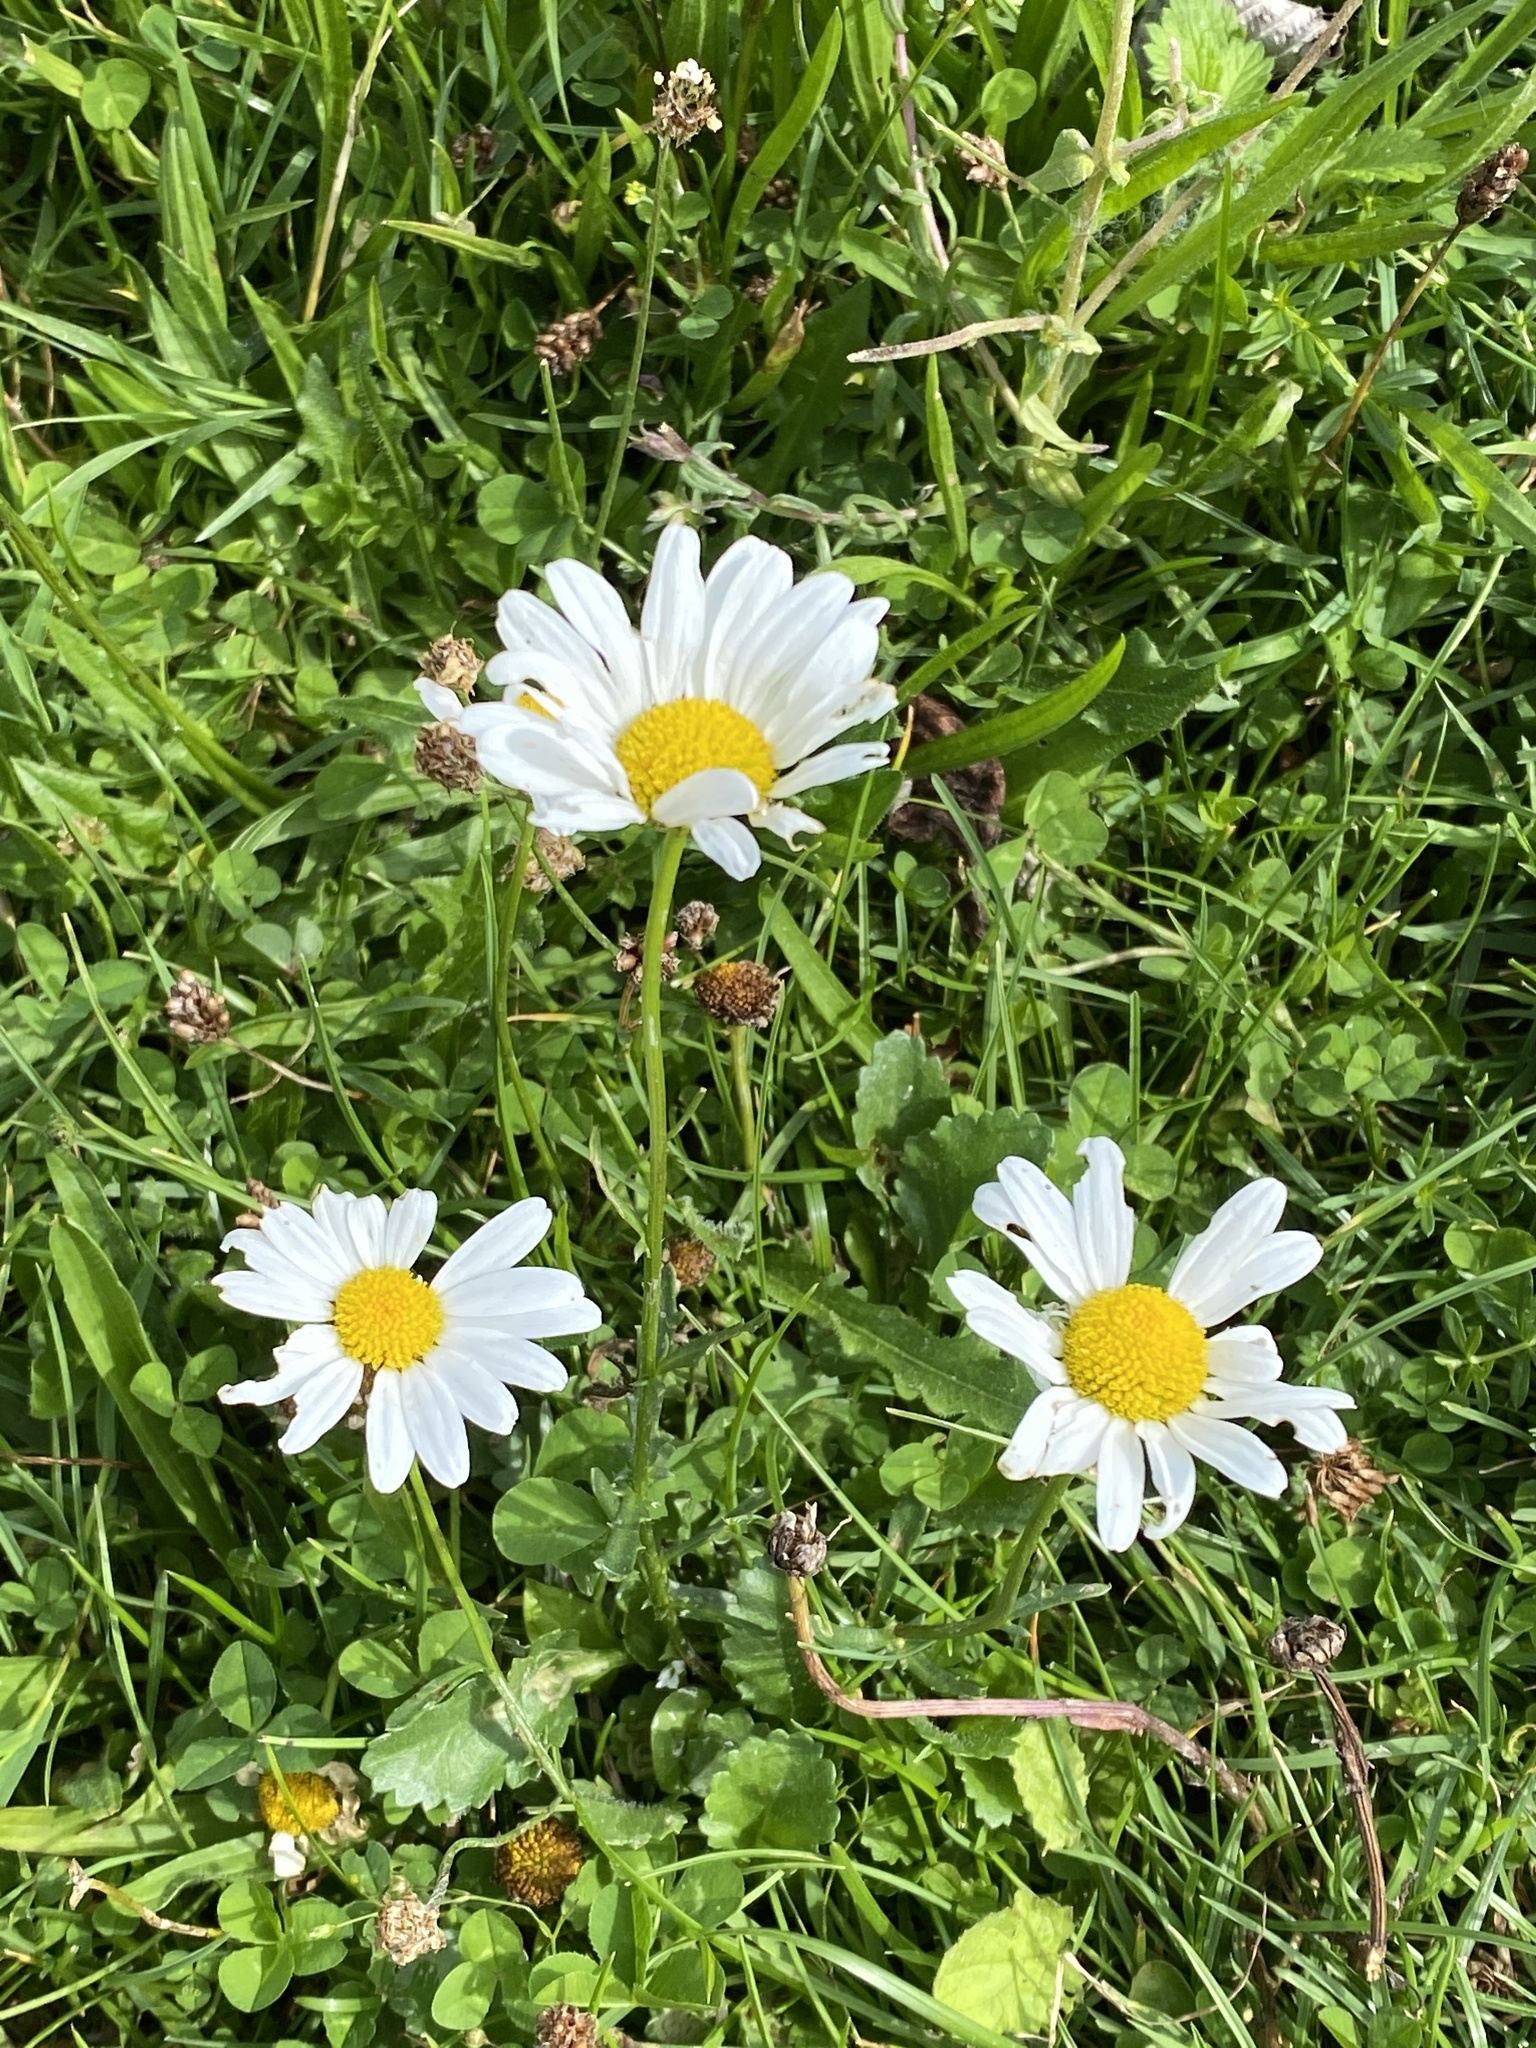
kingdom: Plantae
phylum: Tracheophyta
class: Magnoliopsida
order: Asterales
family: Asteraceae
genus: Leucanthemum
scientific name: Leucanthemum vulgare
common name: Oxeye daisy
